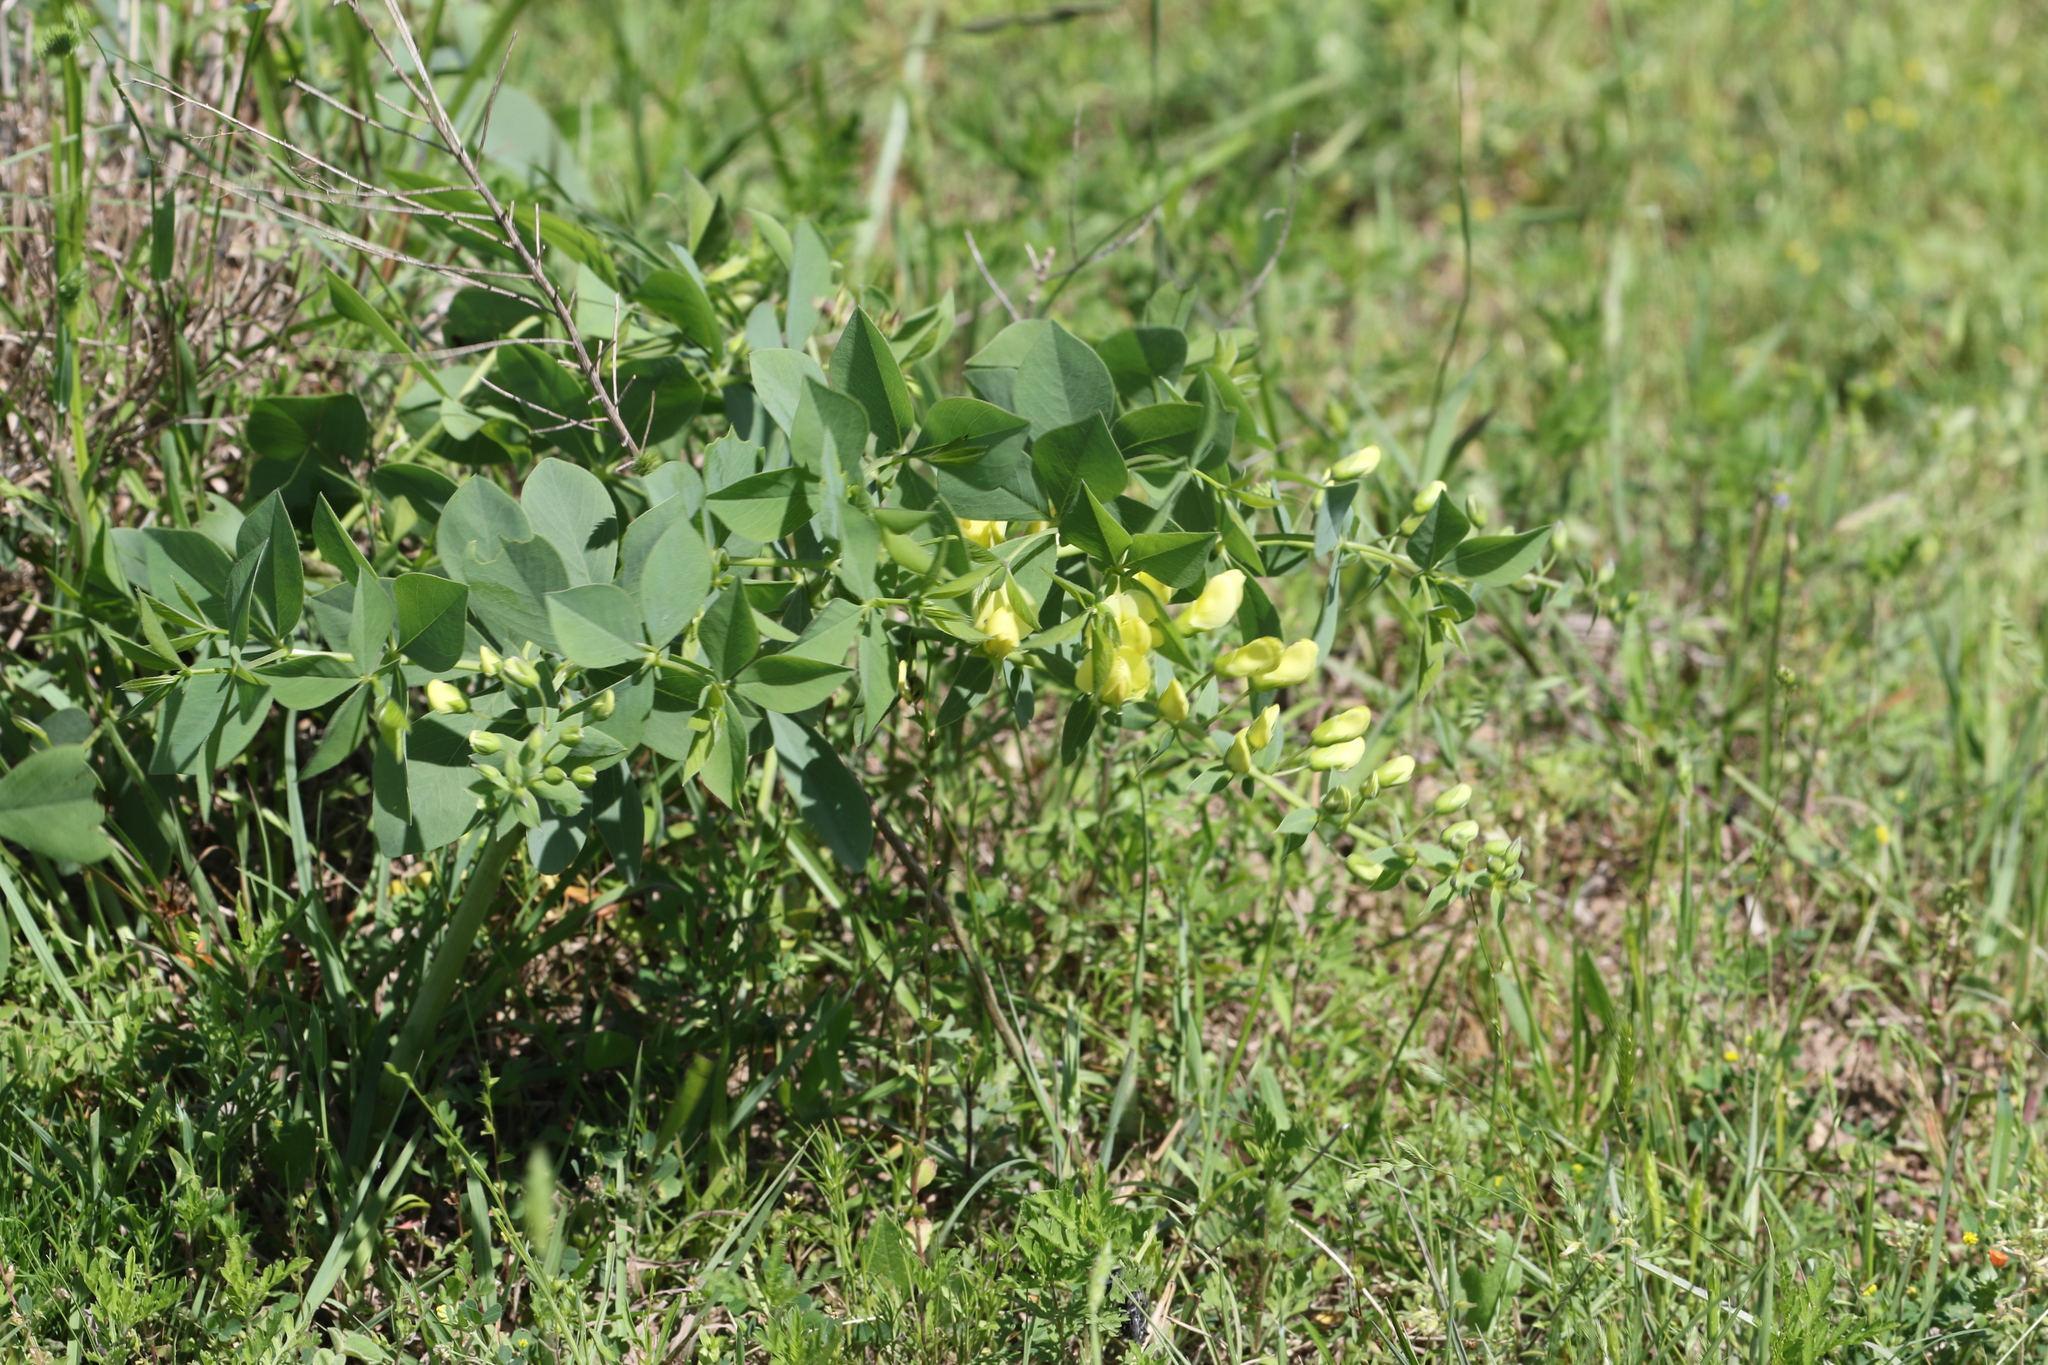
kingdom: Plantae
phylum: Tracheophyta
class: Magnoliopsida
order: Fabales
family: Fabaceae
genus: Baptisia
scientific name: Baptisia bracteata
